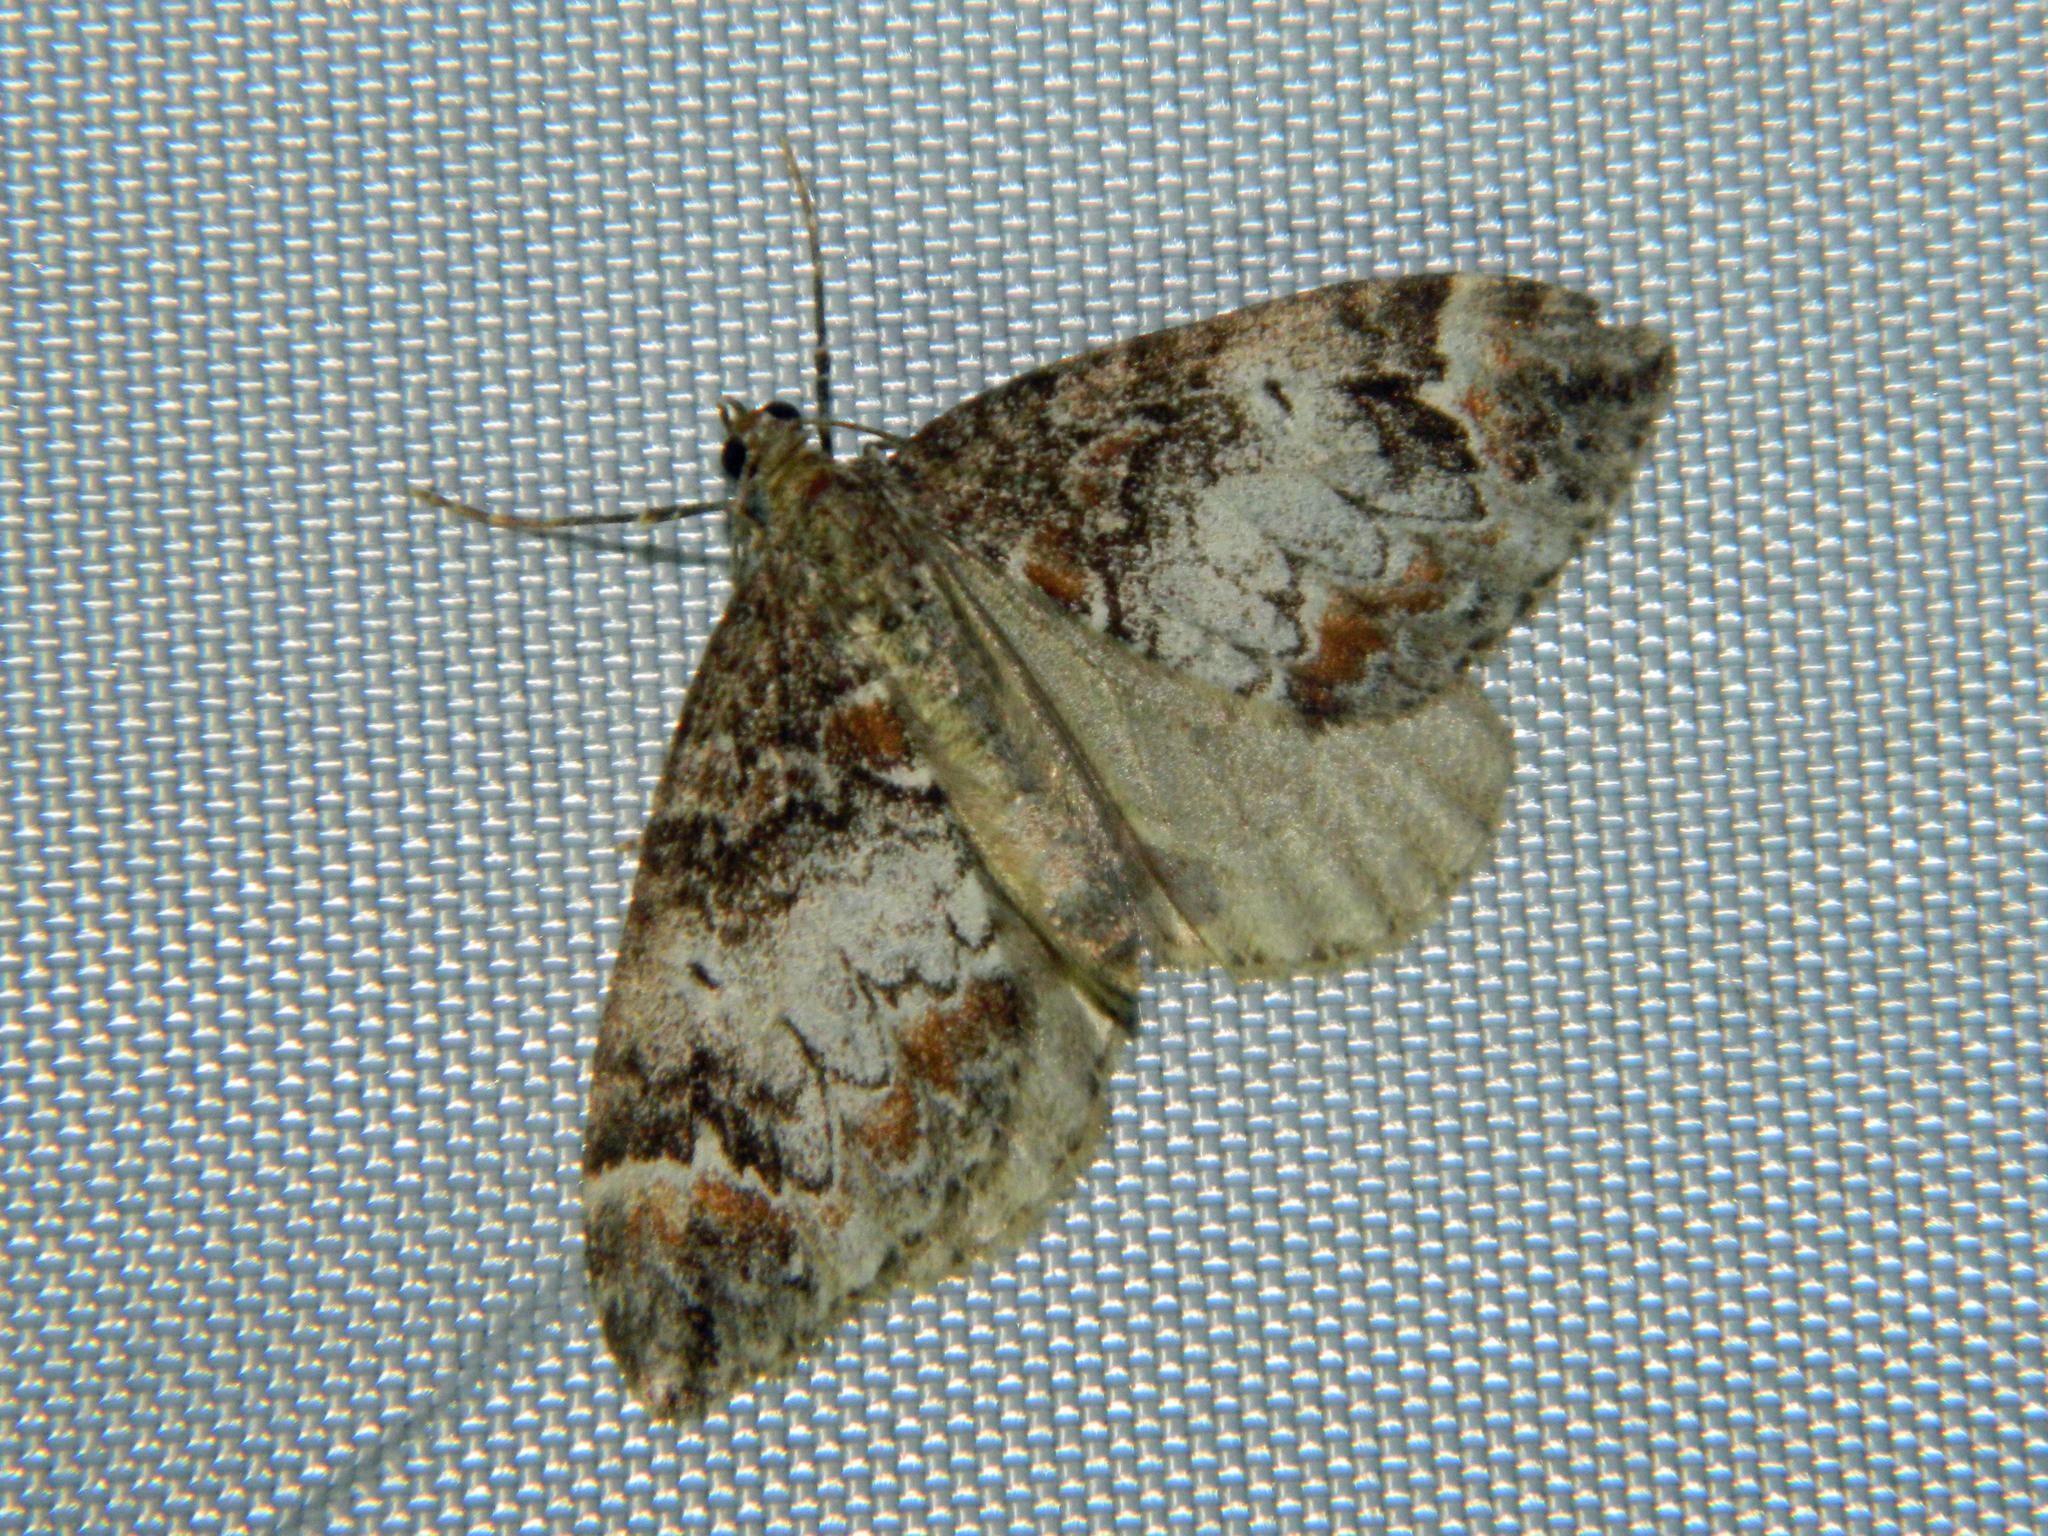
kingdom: Animalia
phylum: Arthropoda
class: Insecta
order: Lepidoptera
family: Geometridae
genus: Dysstroma
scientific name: Dysstroma truncata
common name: Common marbled carpet
